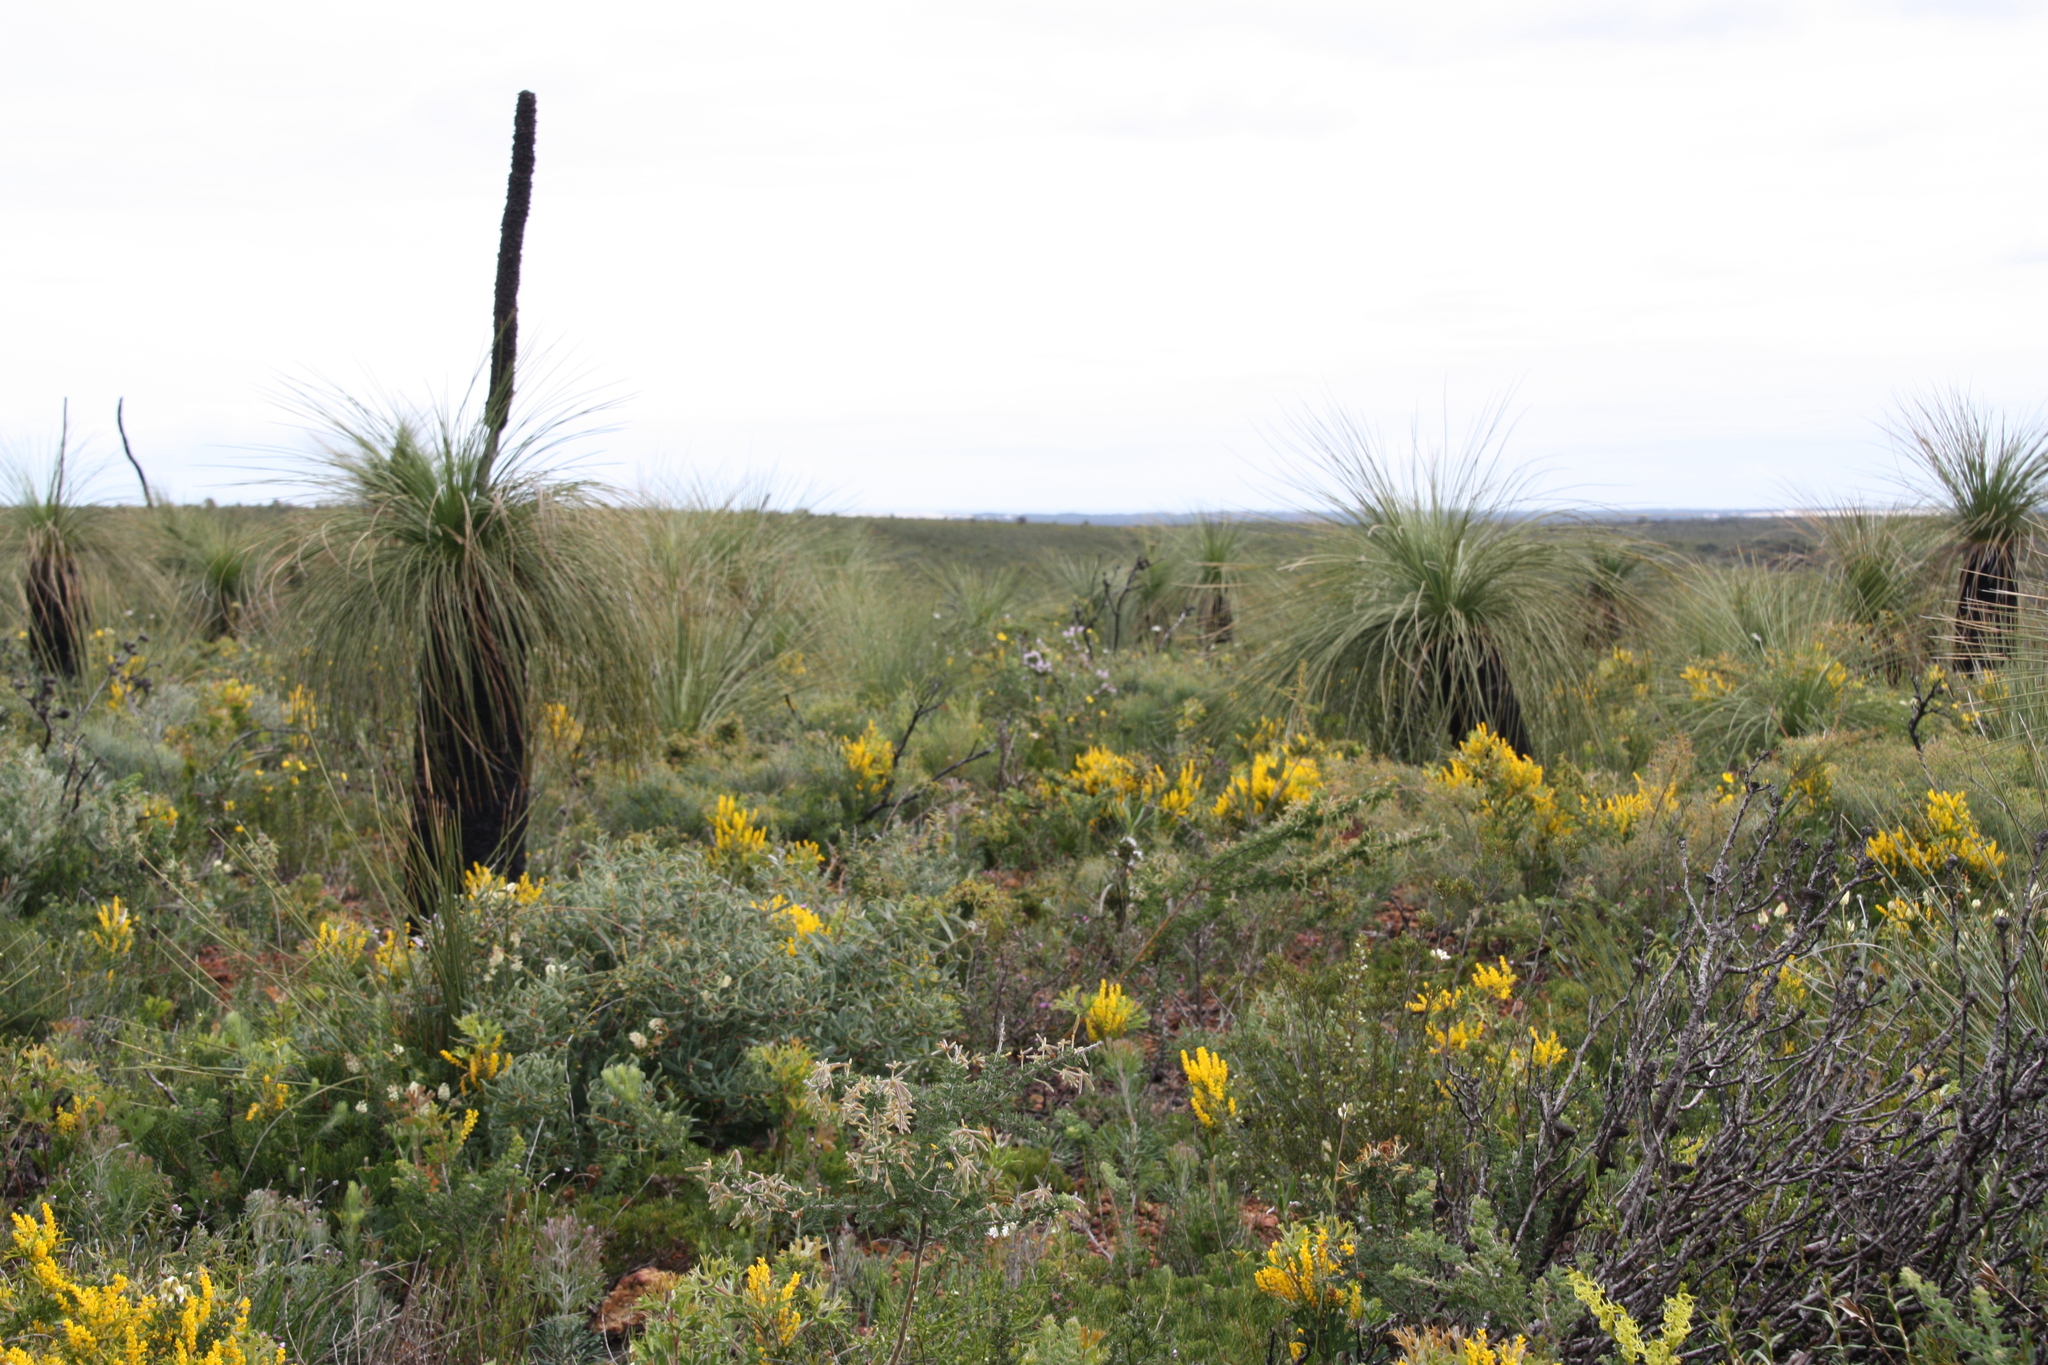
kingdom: Plantae
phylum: Tracheophyta
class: Liliopsida
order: Asparagales
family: Asphodelaceae
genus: Xanthorrhoea
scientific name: Xanthorrhoea drummondii
